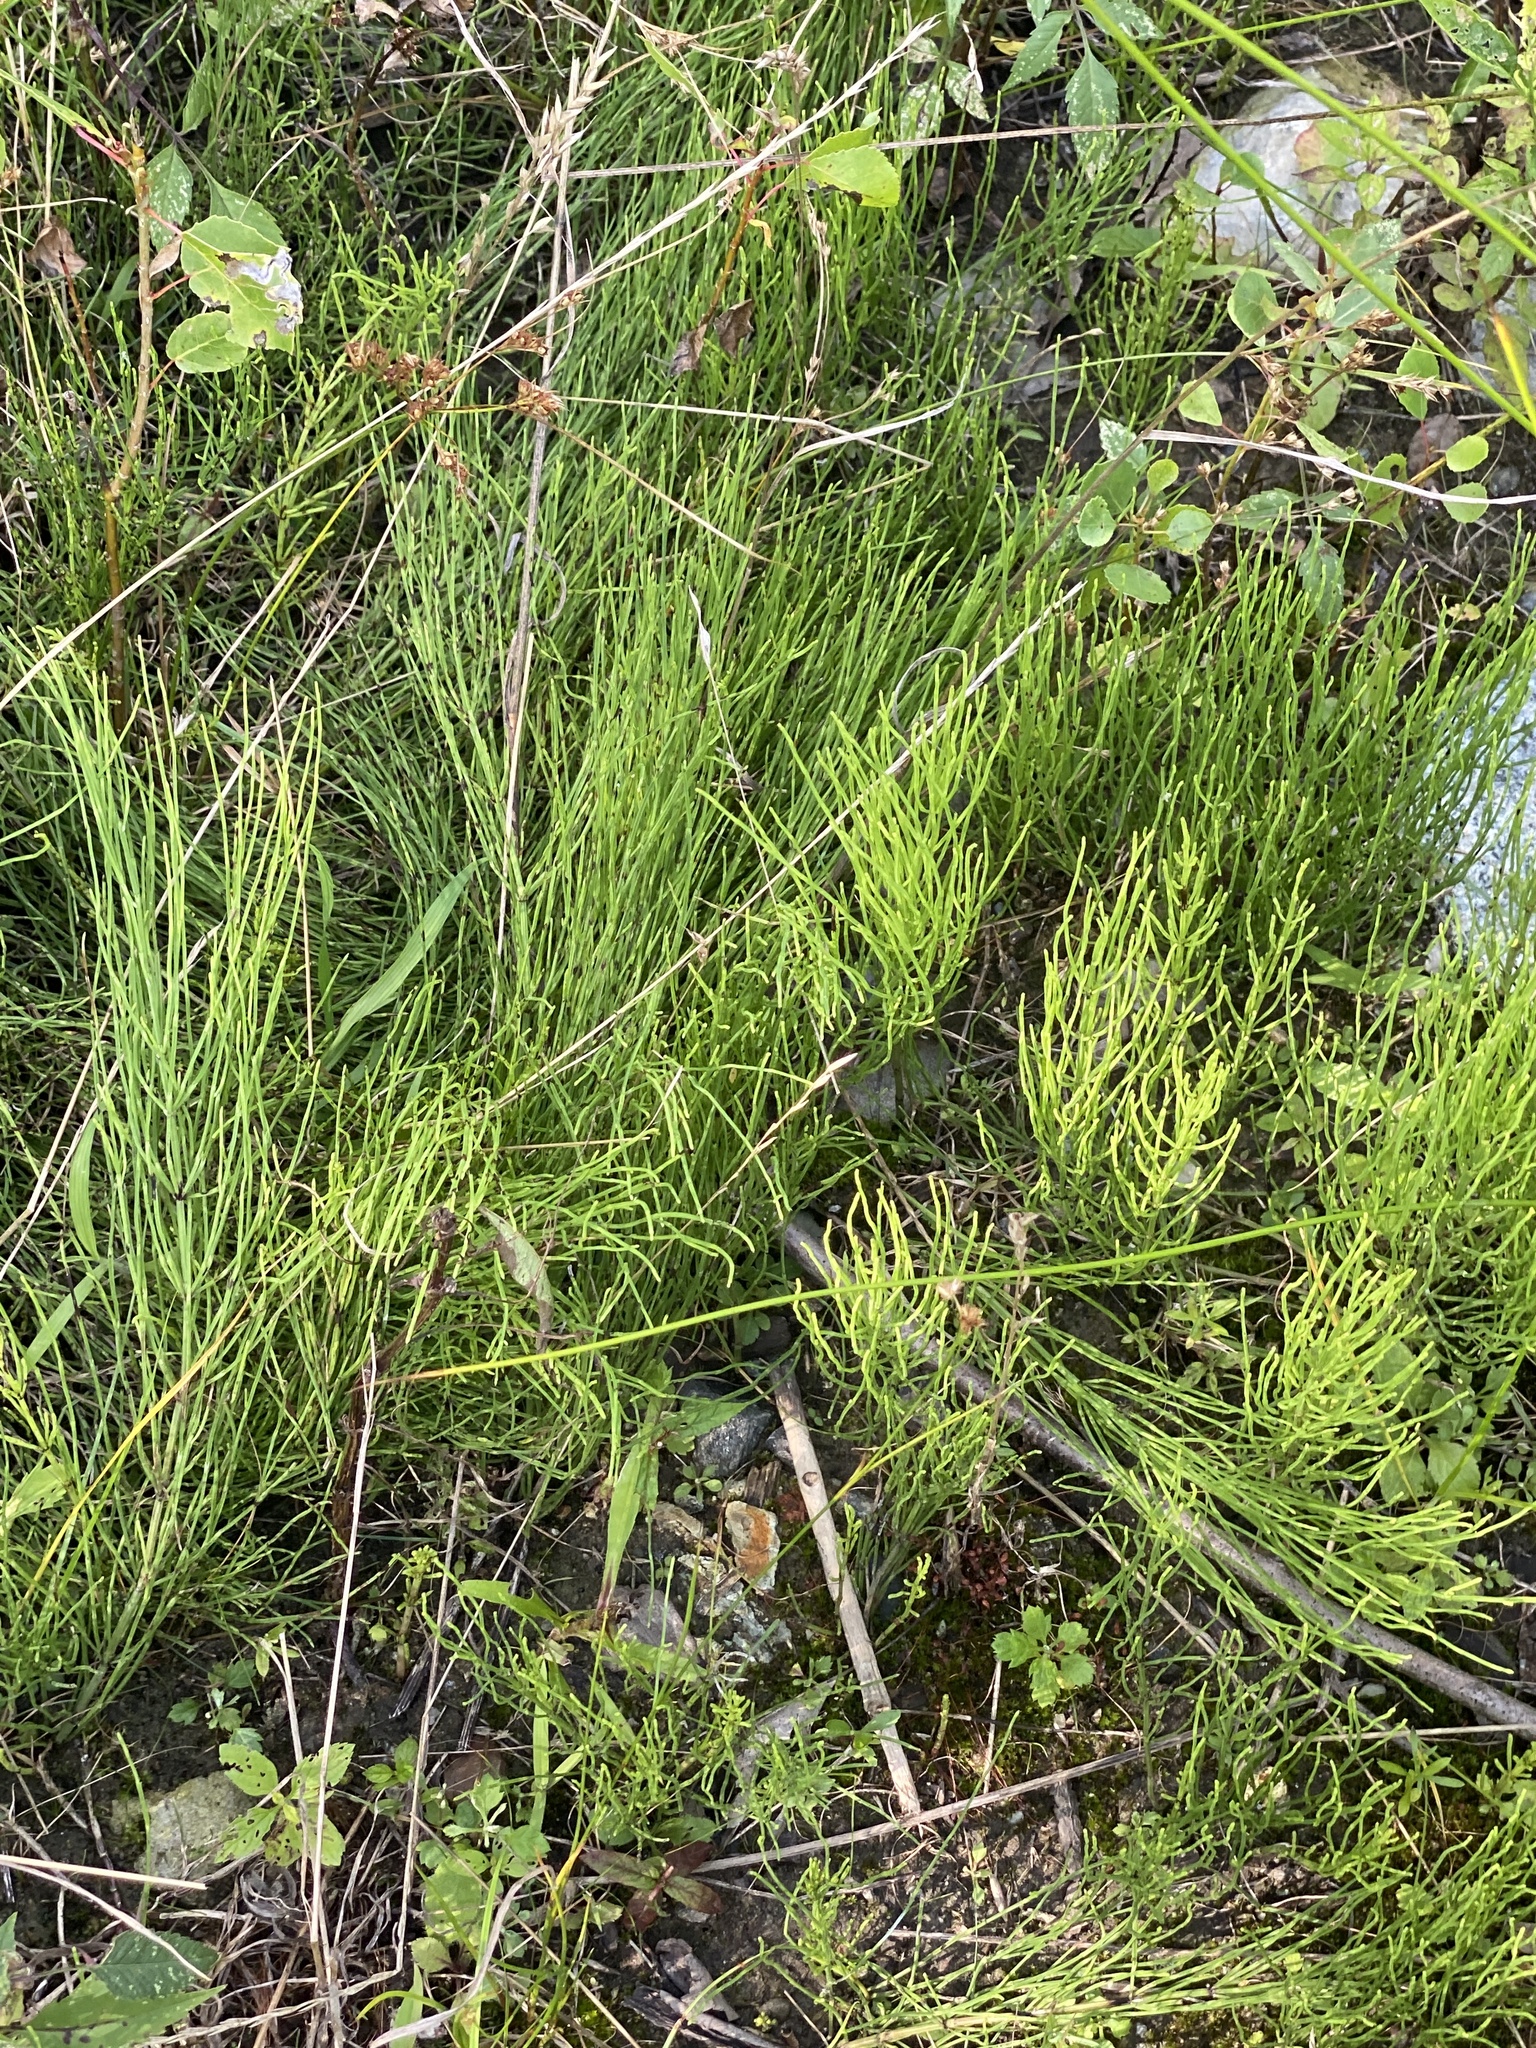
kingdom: Plantae
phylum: Tracheophyta
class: Polypodiopsida
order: Equisetales
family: Equisetaceae
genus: Equisetum
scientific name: Equisetum arvense
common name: Field horsetail
